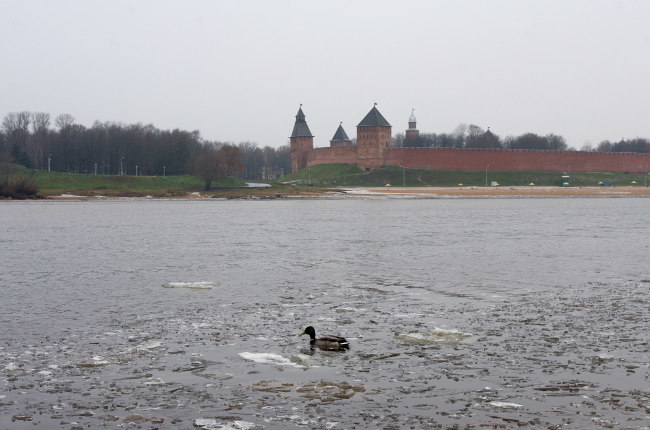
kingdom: Animalia
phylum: Chordata
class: Aves
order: Anseriformes
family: Anatidae
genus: Anas
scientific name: Anas platyrhynchos
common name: Mallard
